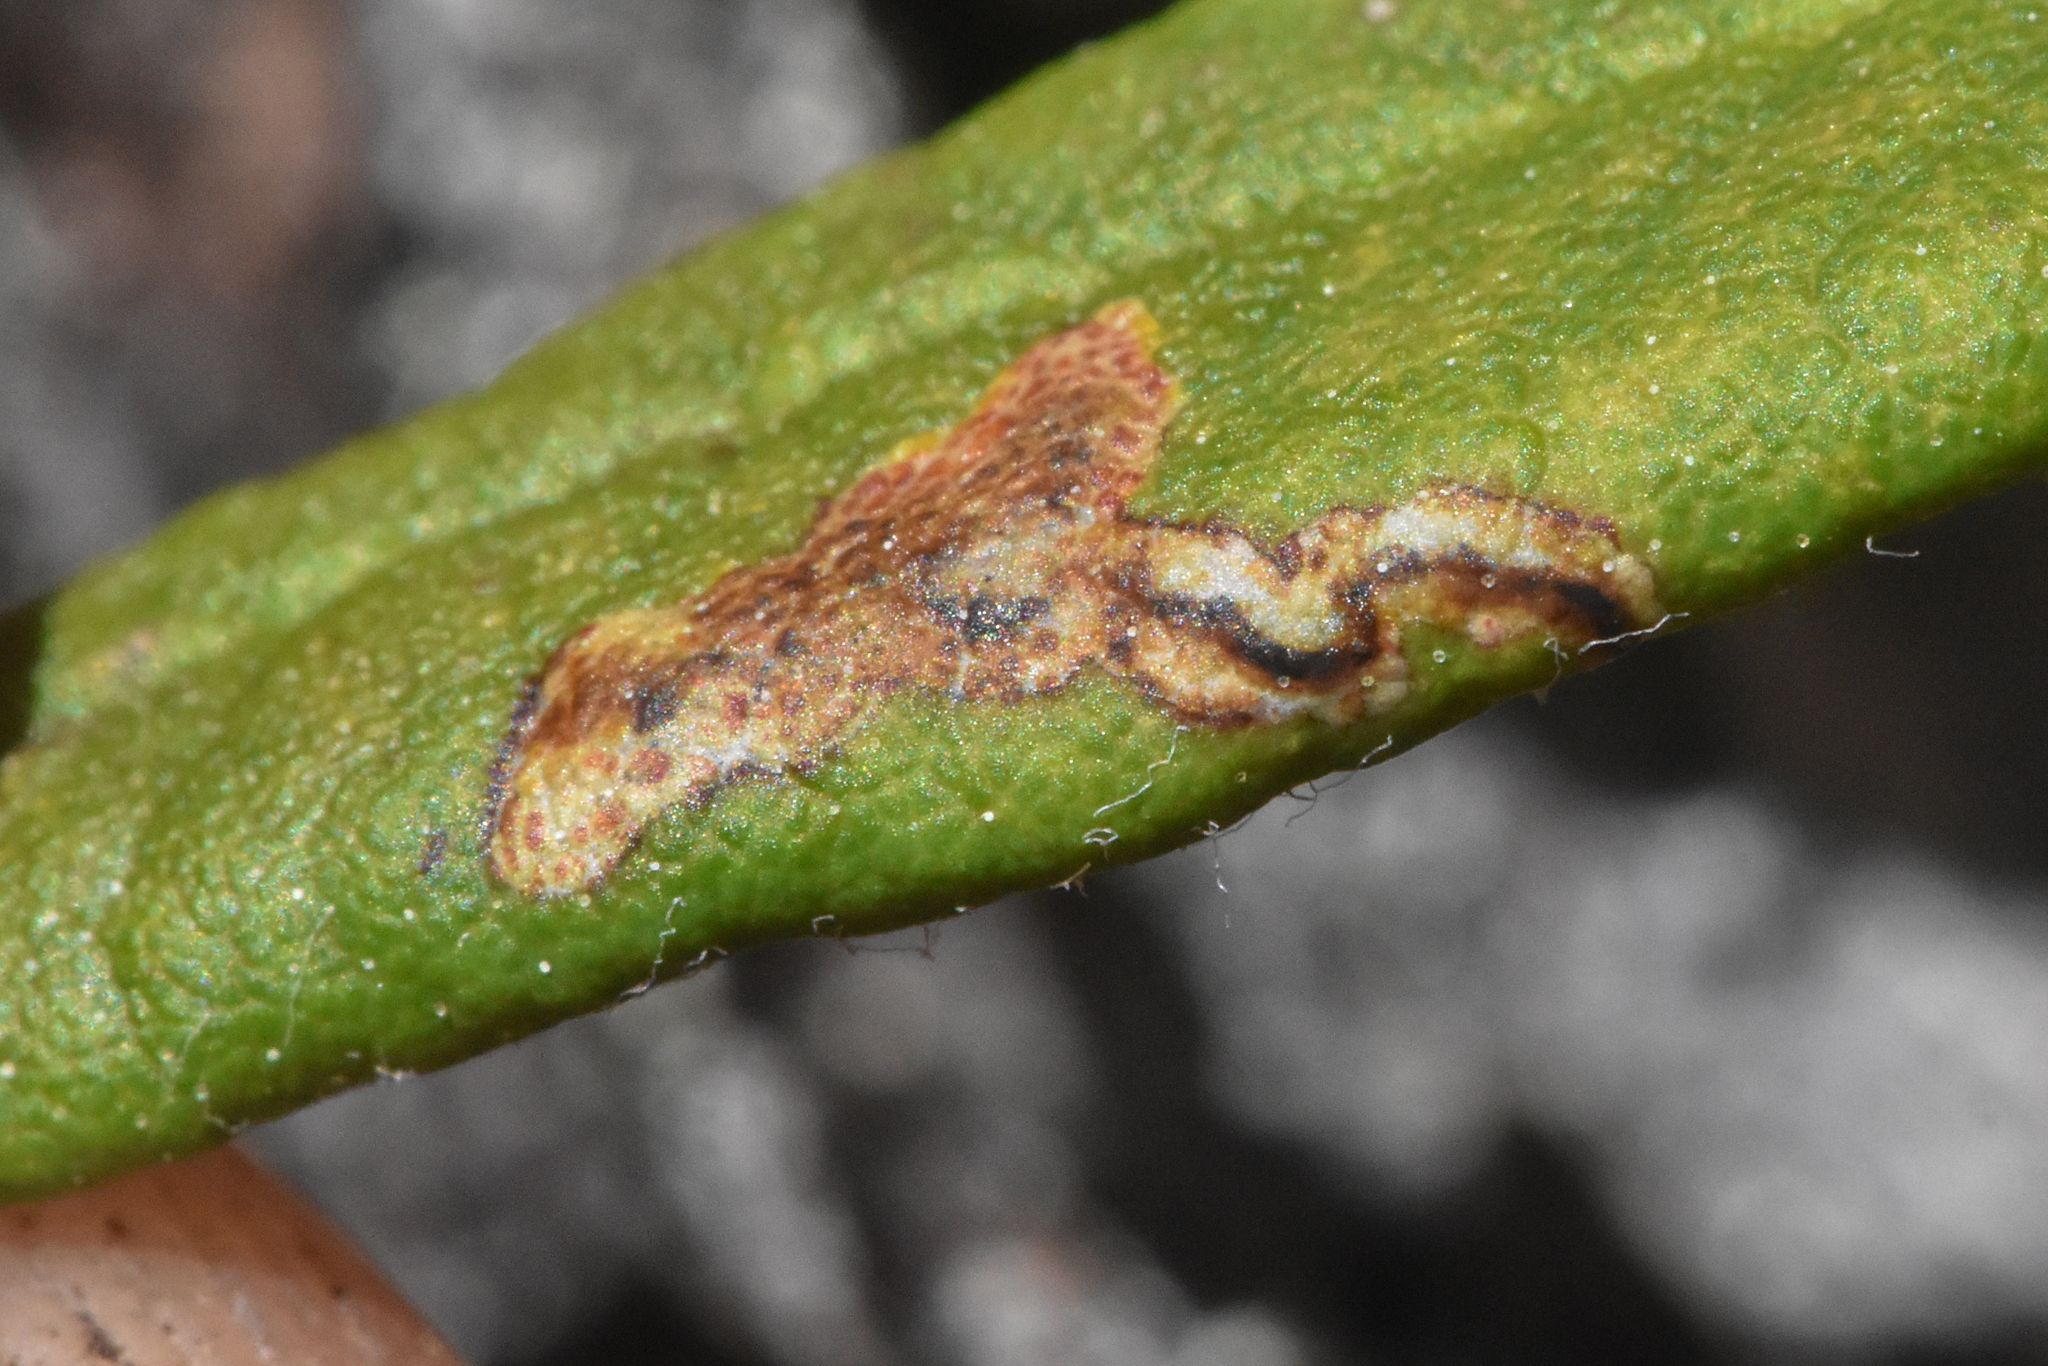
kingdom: Animalia
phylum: Arthropoda
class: Insecta
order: Lepidoptera
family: Gracillariidae
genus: Phyllonorycter
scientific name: Phyllonorycter ledella
